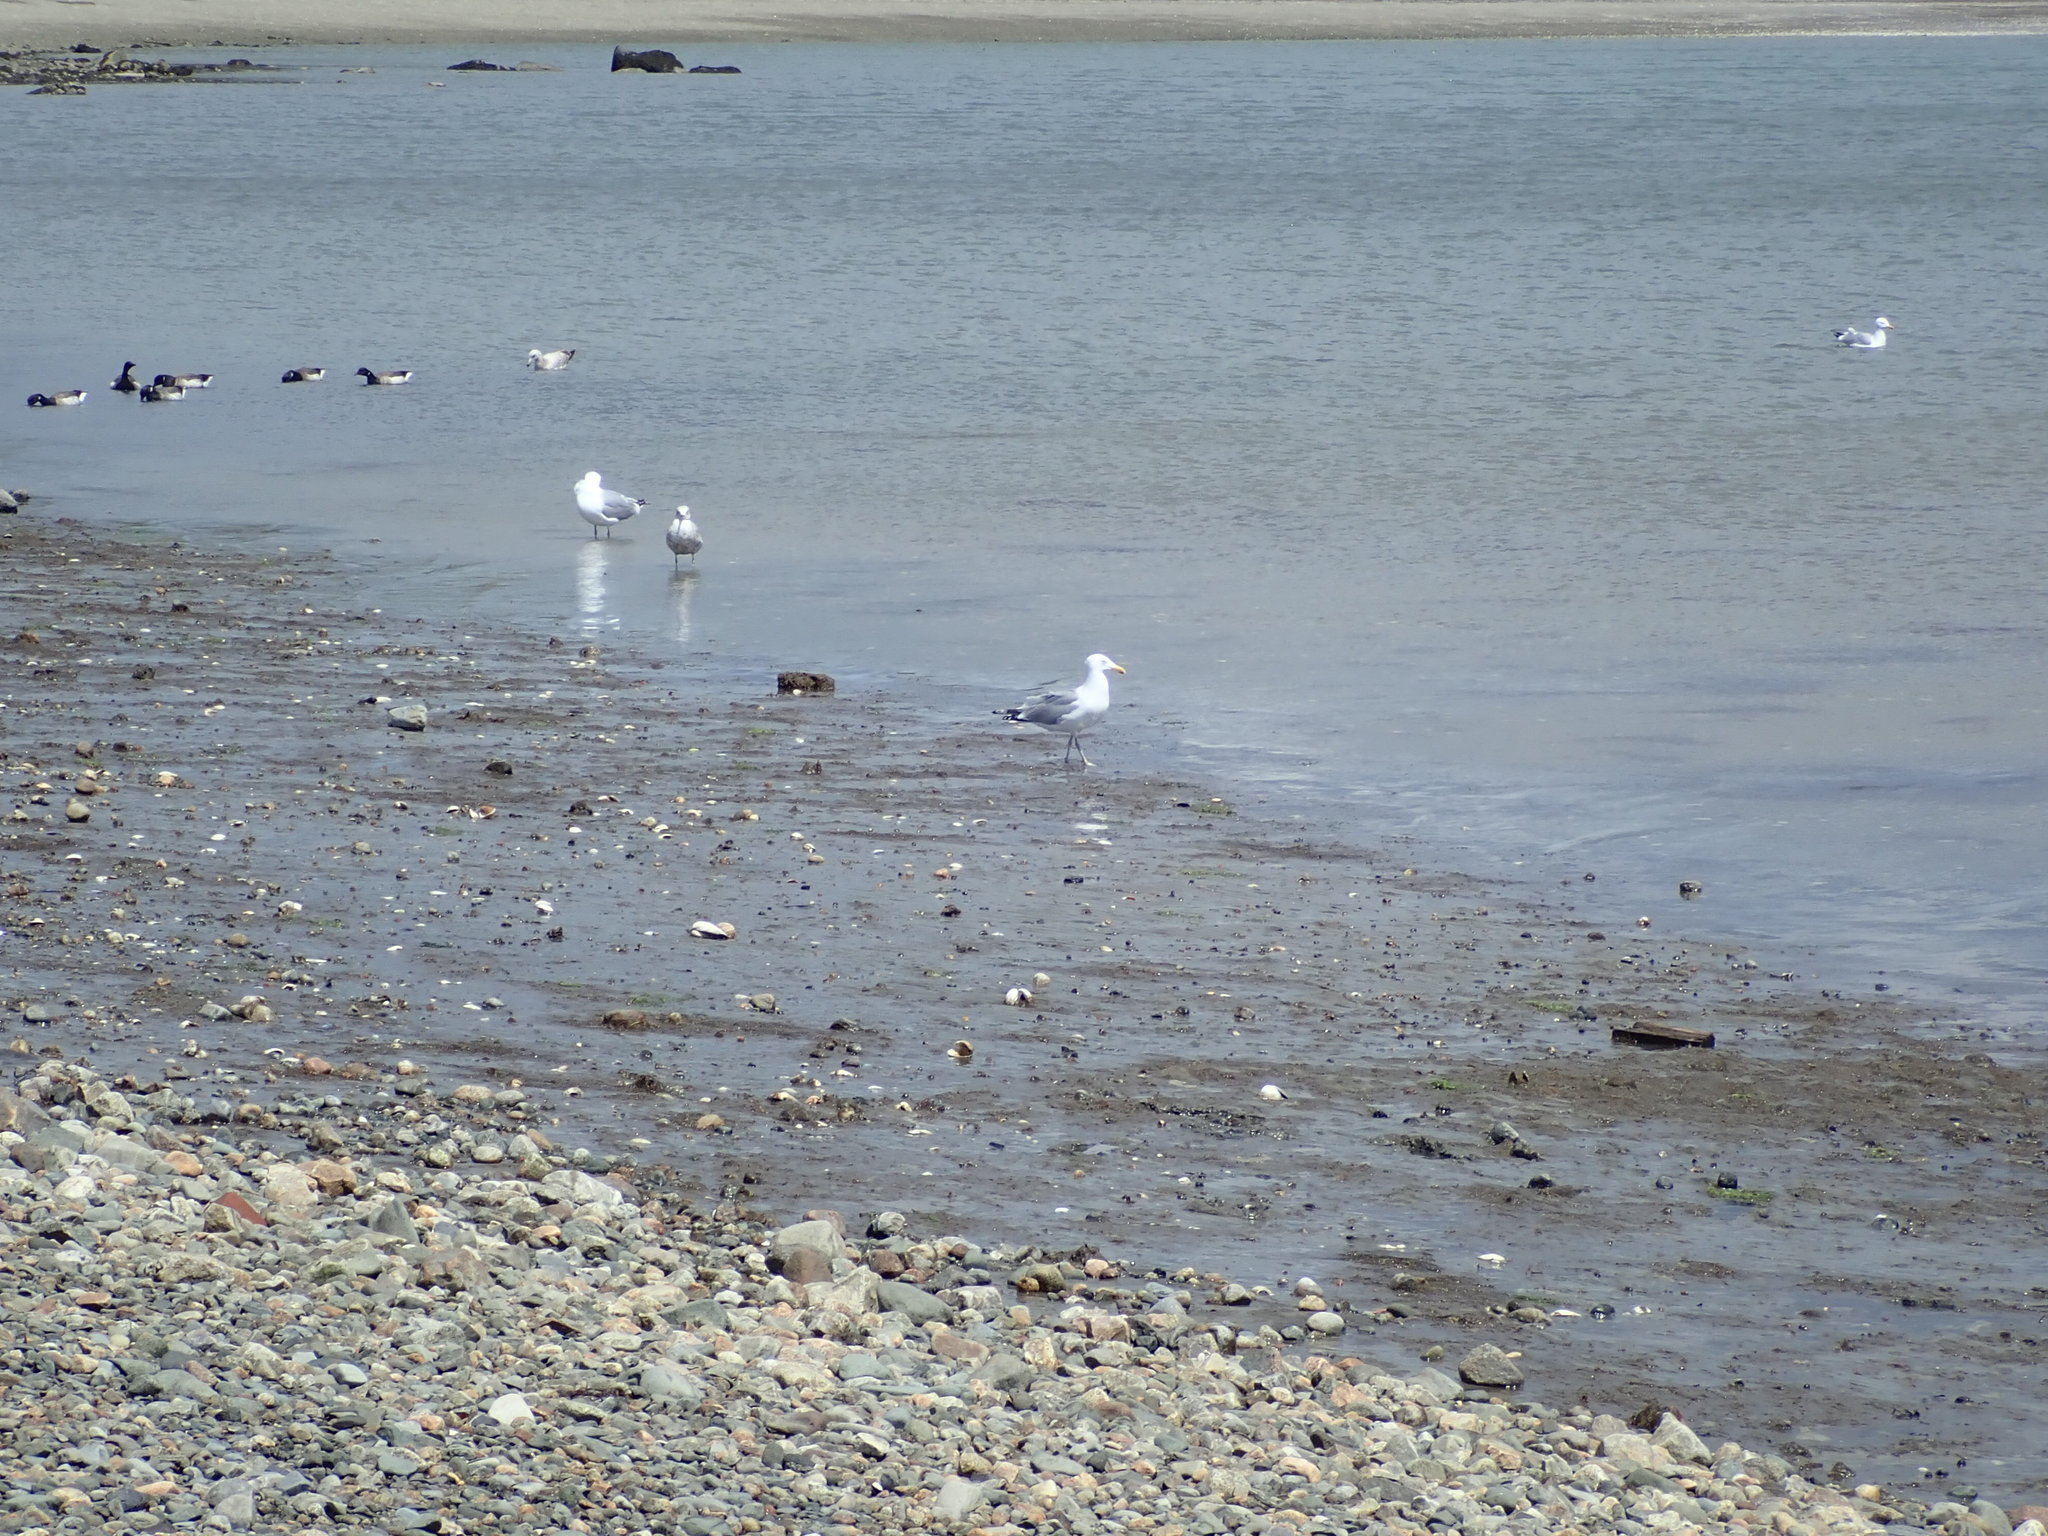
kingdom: Animalia
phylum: Chordata
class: Aves
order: Charadriiformes
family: Laridae
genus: Larus
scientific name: Larus argentatus
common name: Herring gull
